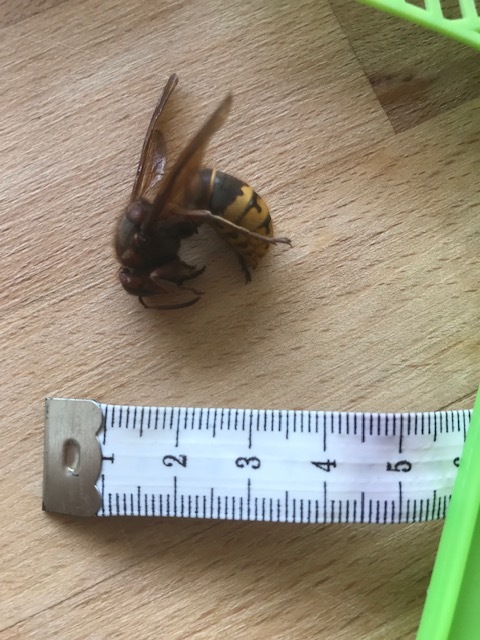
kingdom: Animalia
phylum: Arthropoda
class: Insecta
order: Hymenoptera
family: Vespidae
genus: Vespa
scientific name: Vespa crabro
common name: Hornet
